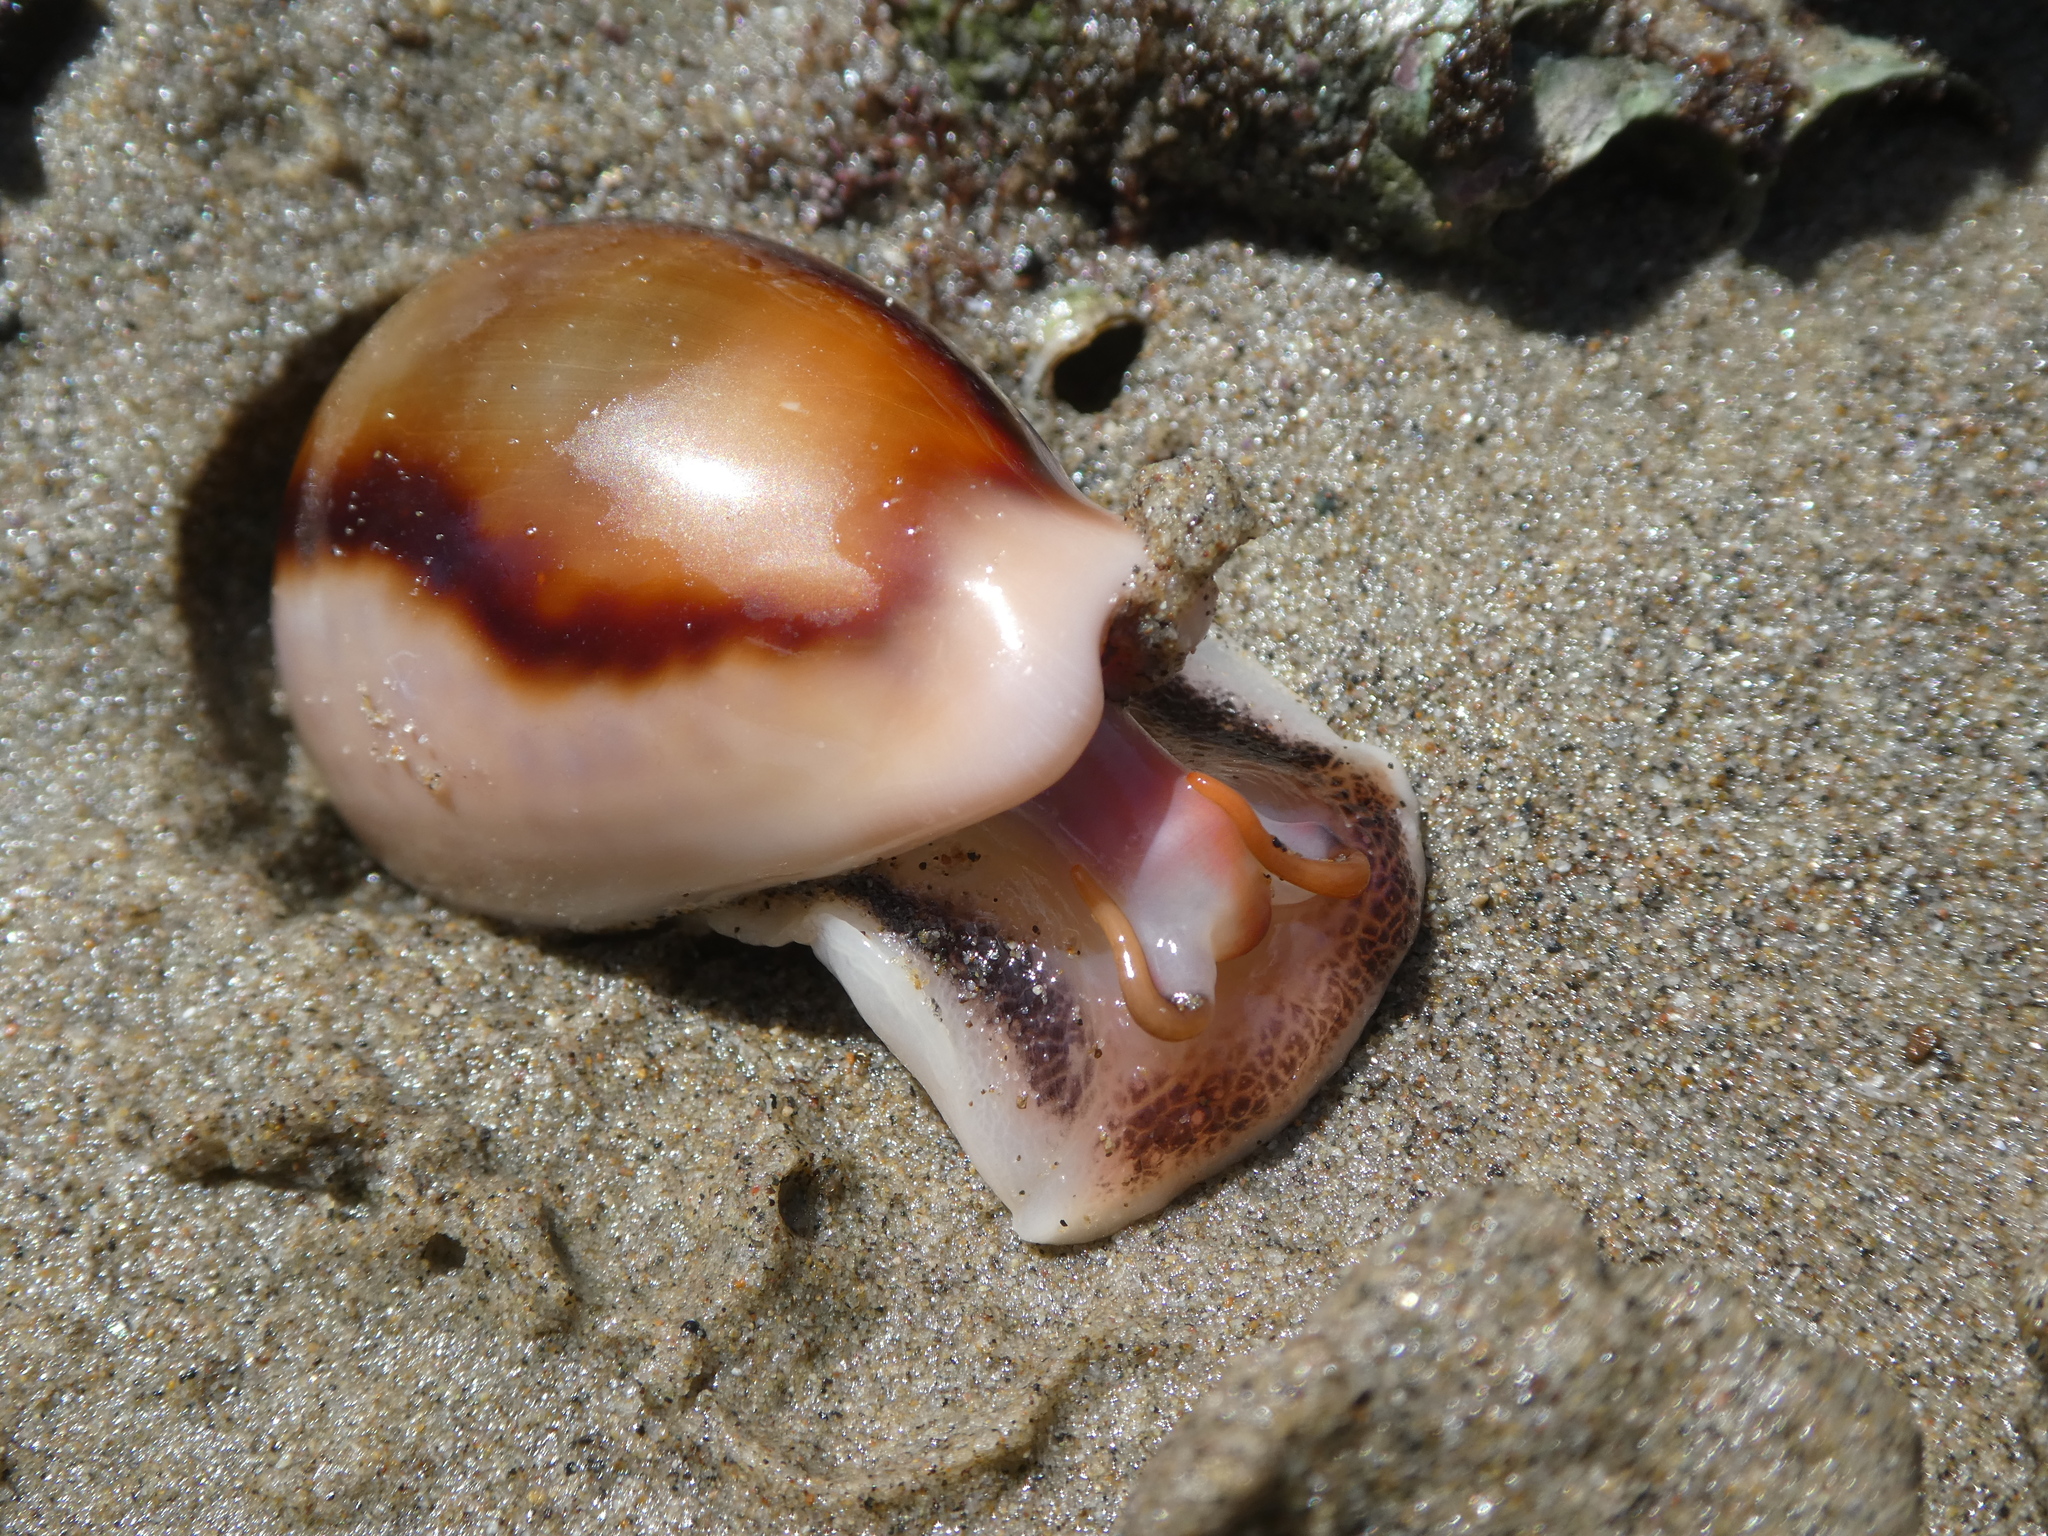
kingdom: Animalia
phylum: Mollusca
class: Gastropoda
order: Littorinimorpha
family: Cypraeidae
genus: Neobernaya
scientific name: Neobernaya spadicea
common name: Chestnut cowrie
